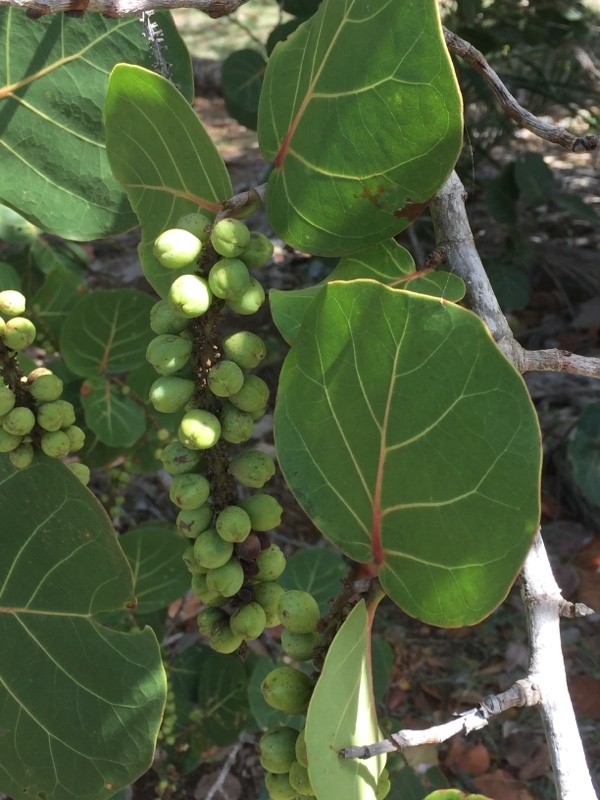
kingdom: Plantae
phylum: Tracheophyta
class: Magnoliopsida
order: Caryophyllales
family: Polygonaceae
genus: Coccoloba
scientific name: Coccoloba uvifera
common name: Seagrape
